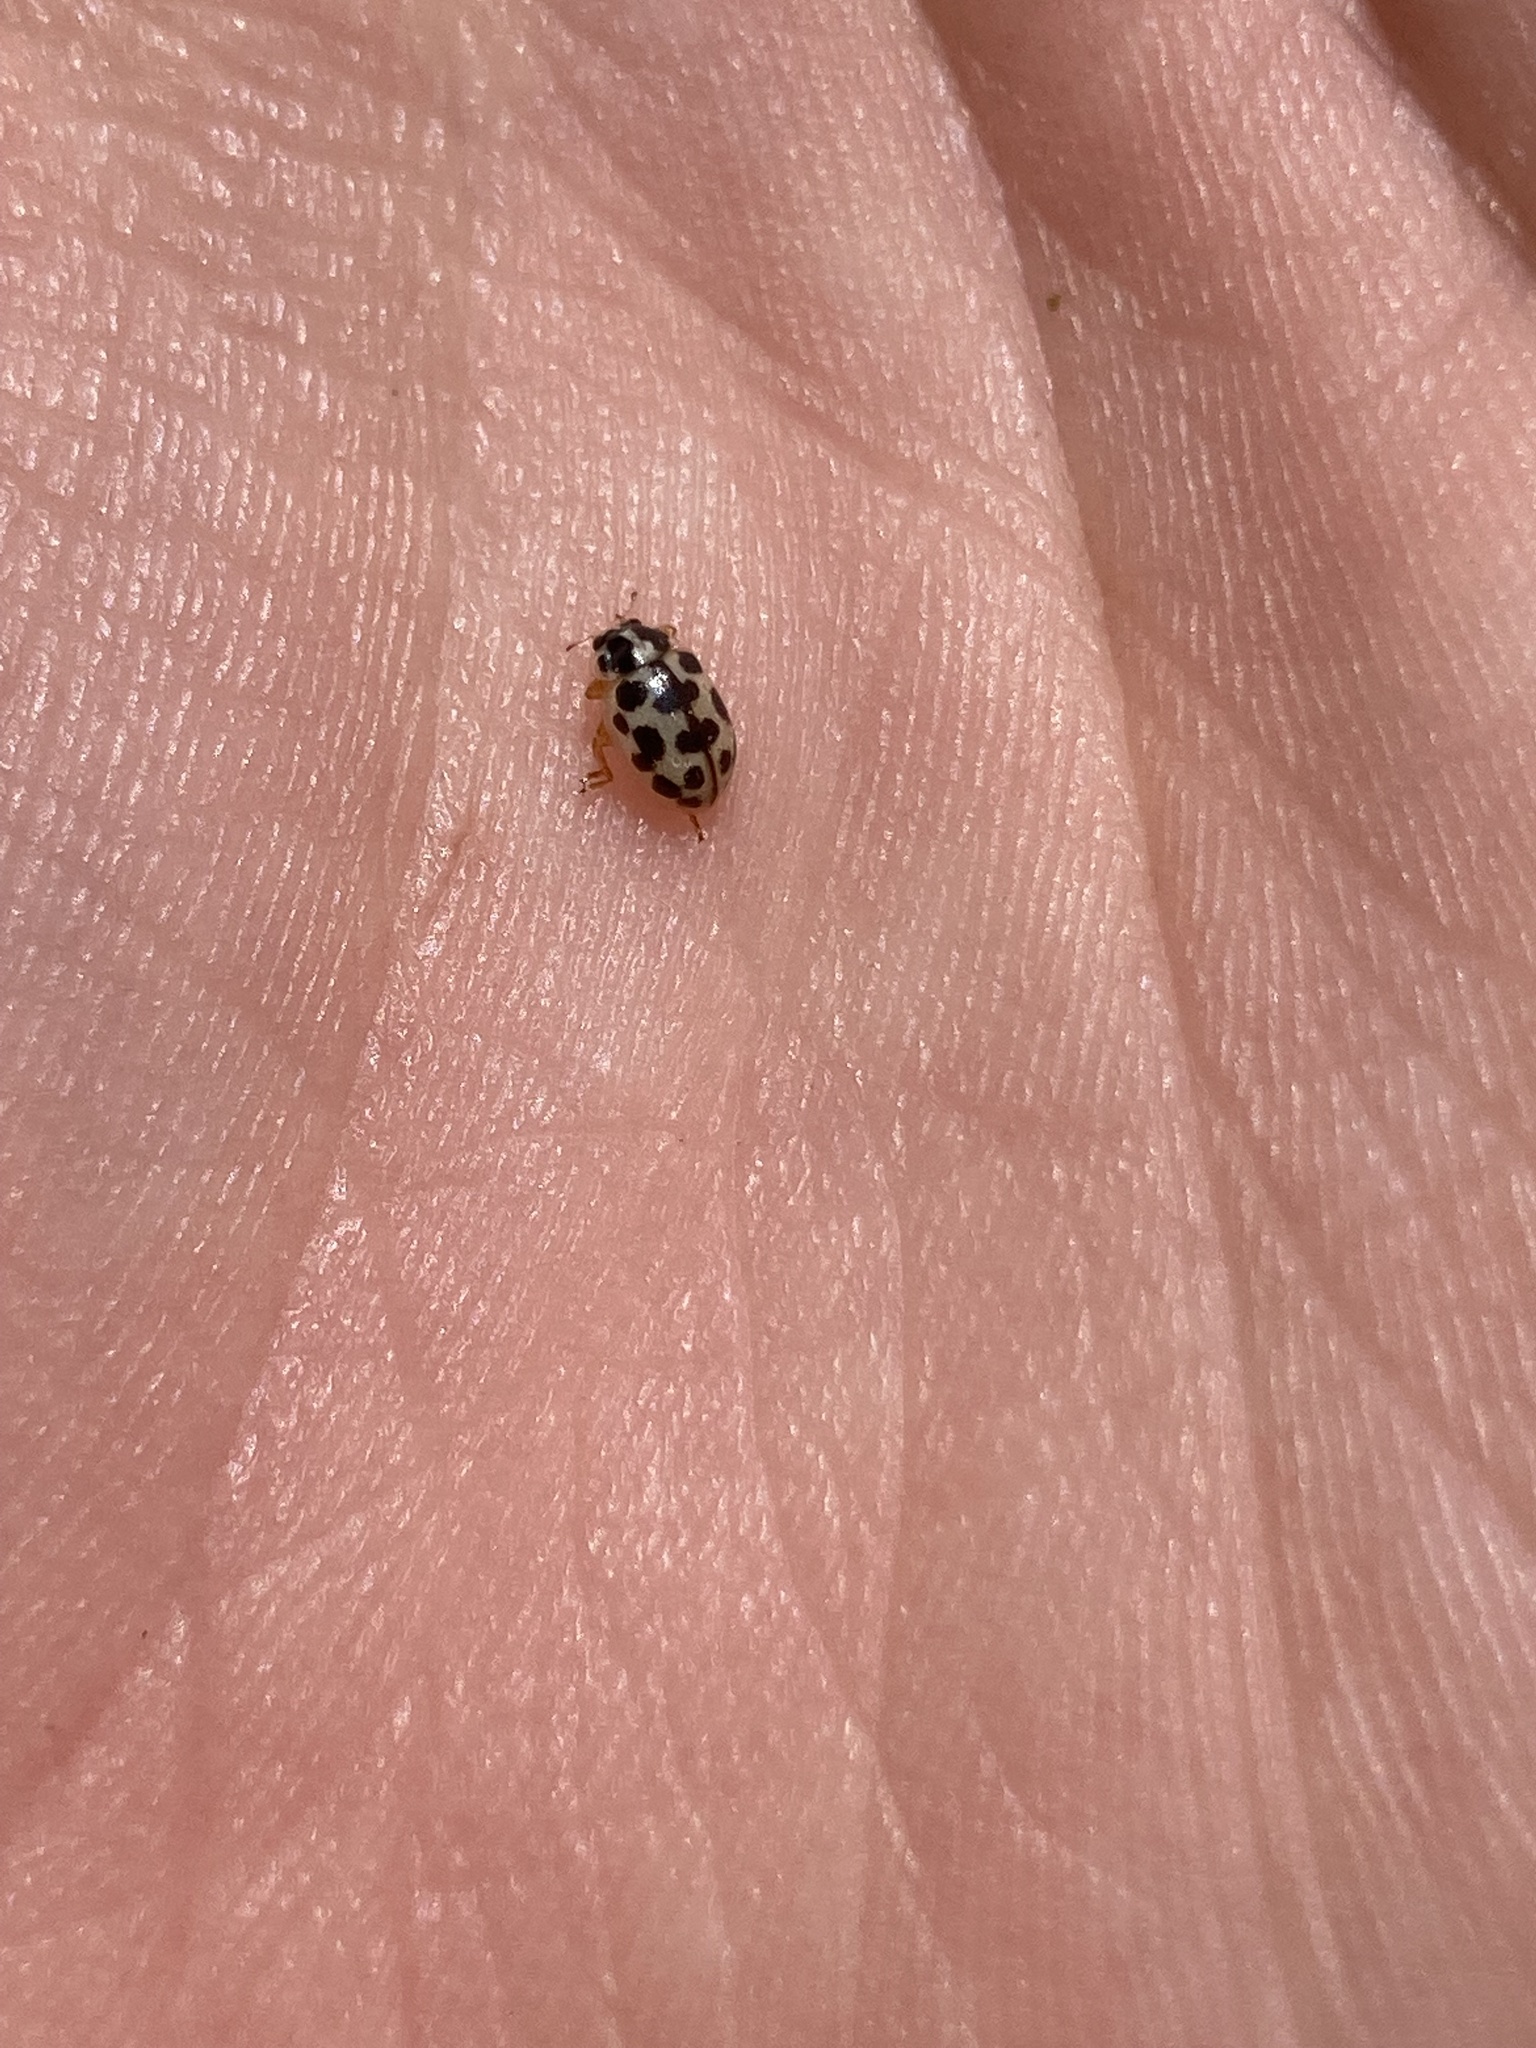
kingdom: Animalia
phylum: Arthropoda
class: Insecta
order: Coleoptera
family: Coccinellidae
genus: Anisosticta
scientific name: Anisosticta bitriangularis
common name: Marsh lady beetle
